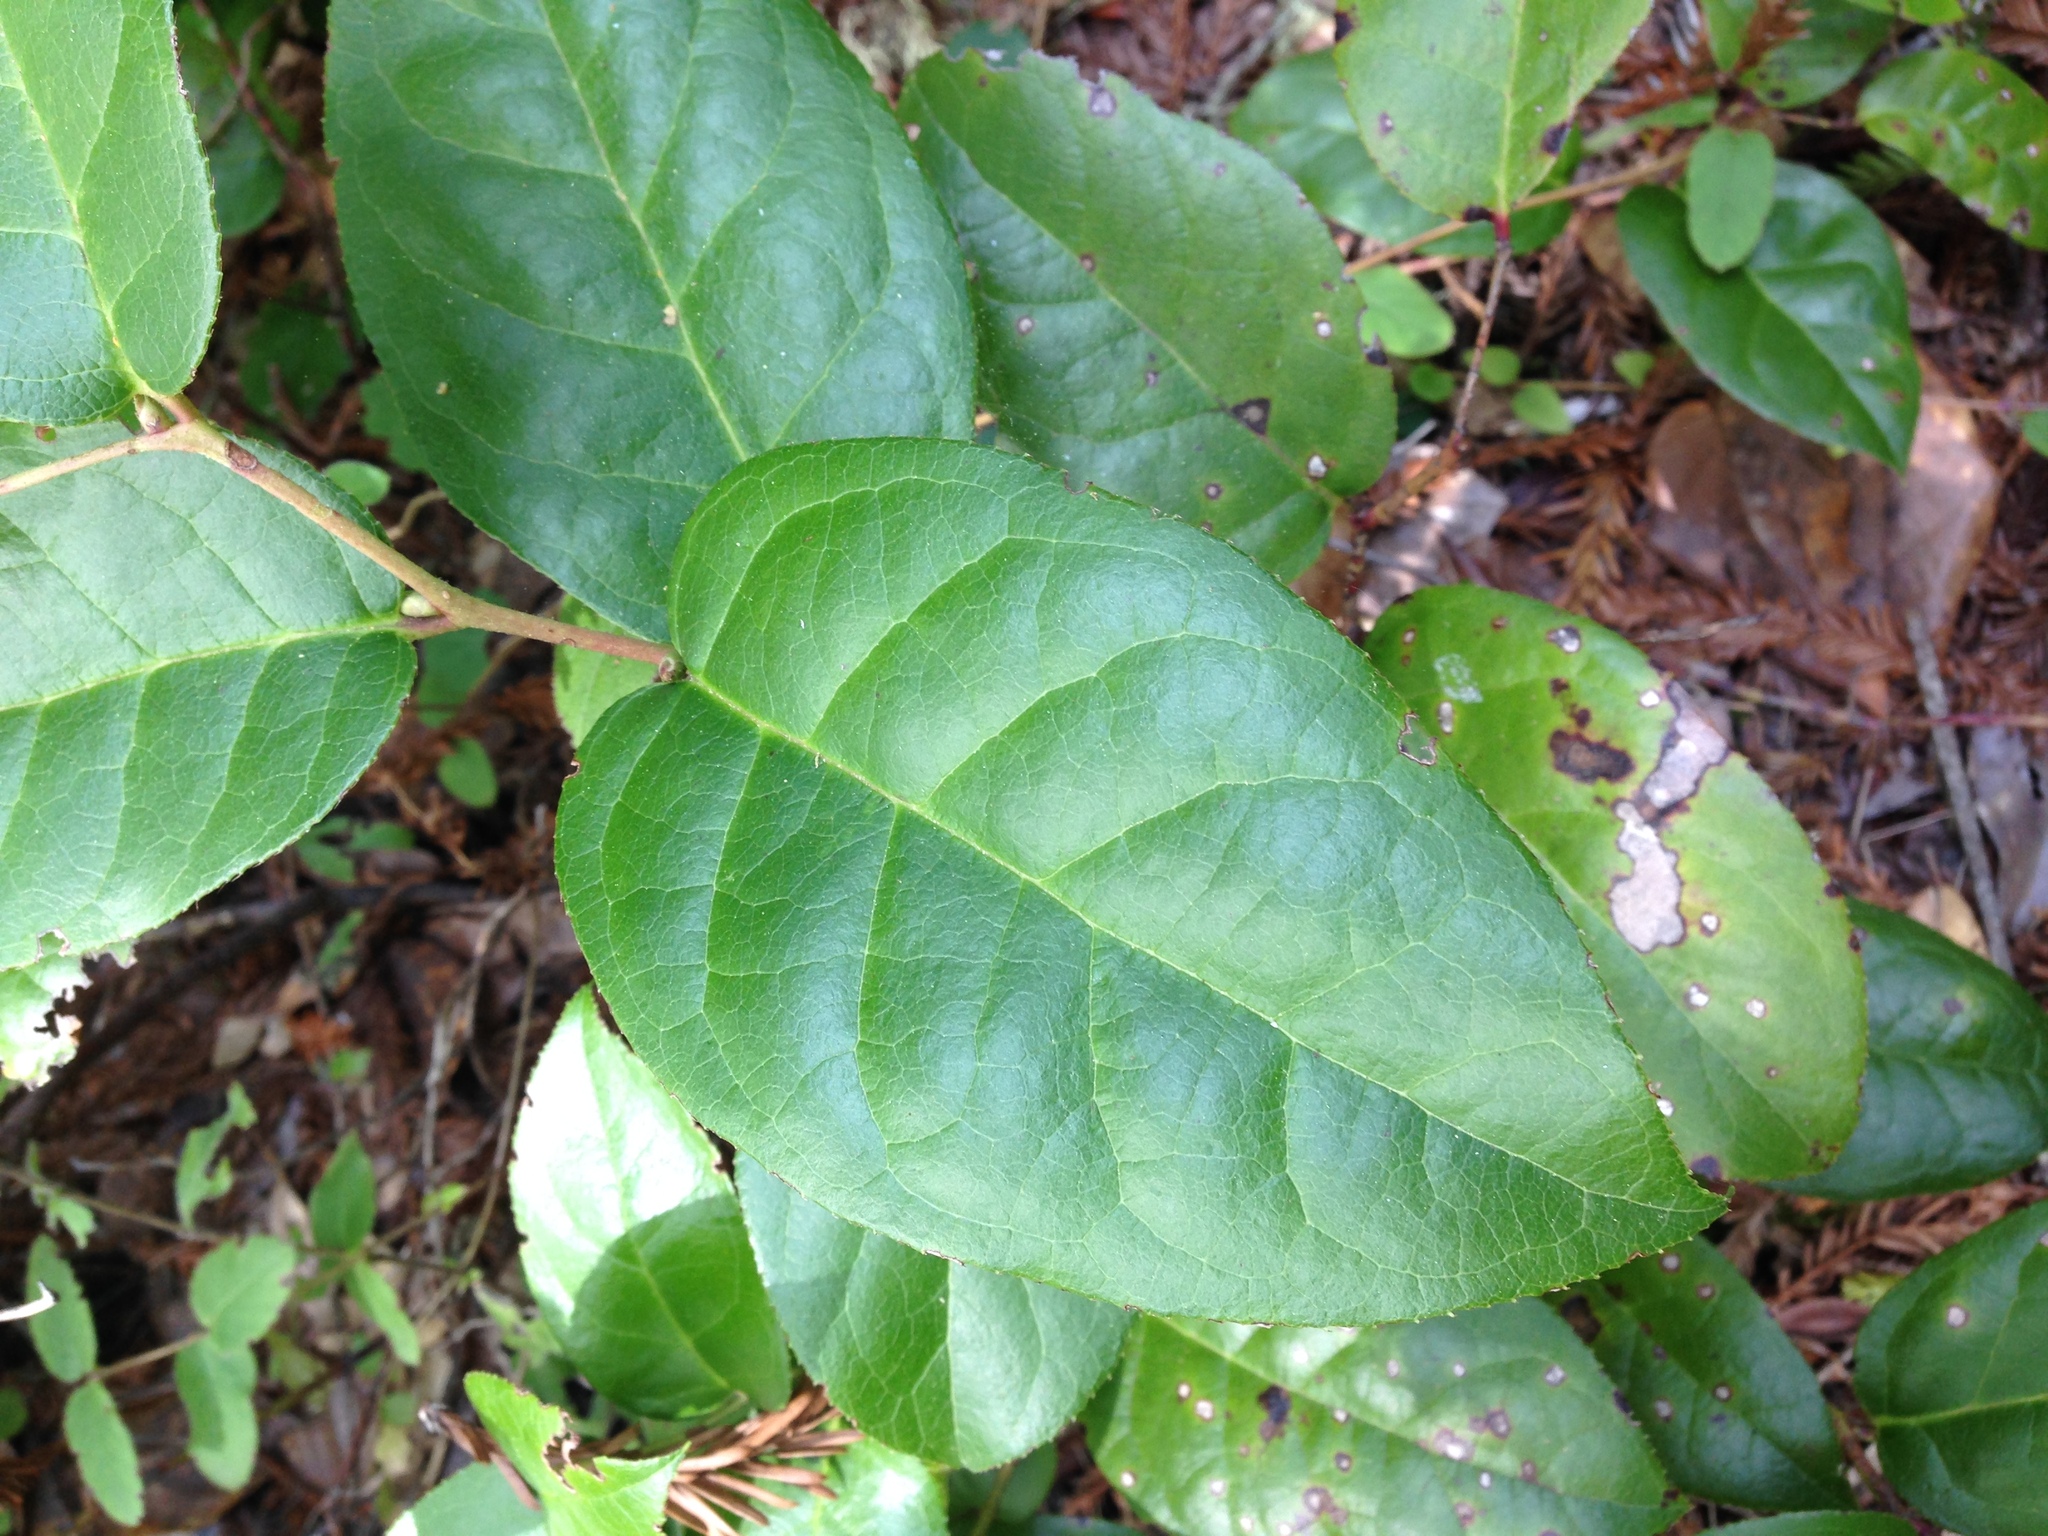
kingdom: Plantae
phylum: Tracheophyta
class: Magnoliopsida
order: Ericales
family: Ericaceae
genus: Gaultheria
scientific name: Gaultheria shallon
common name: Shallon
